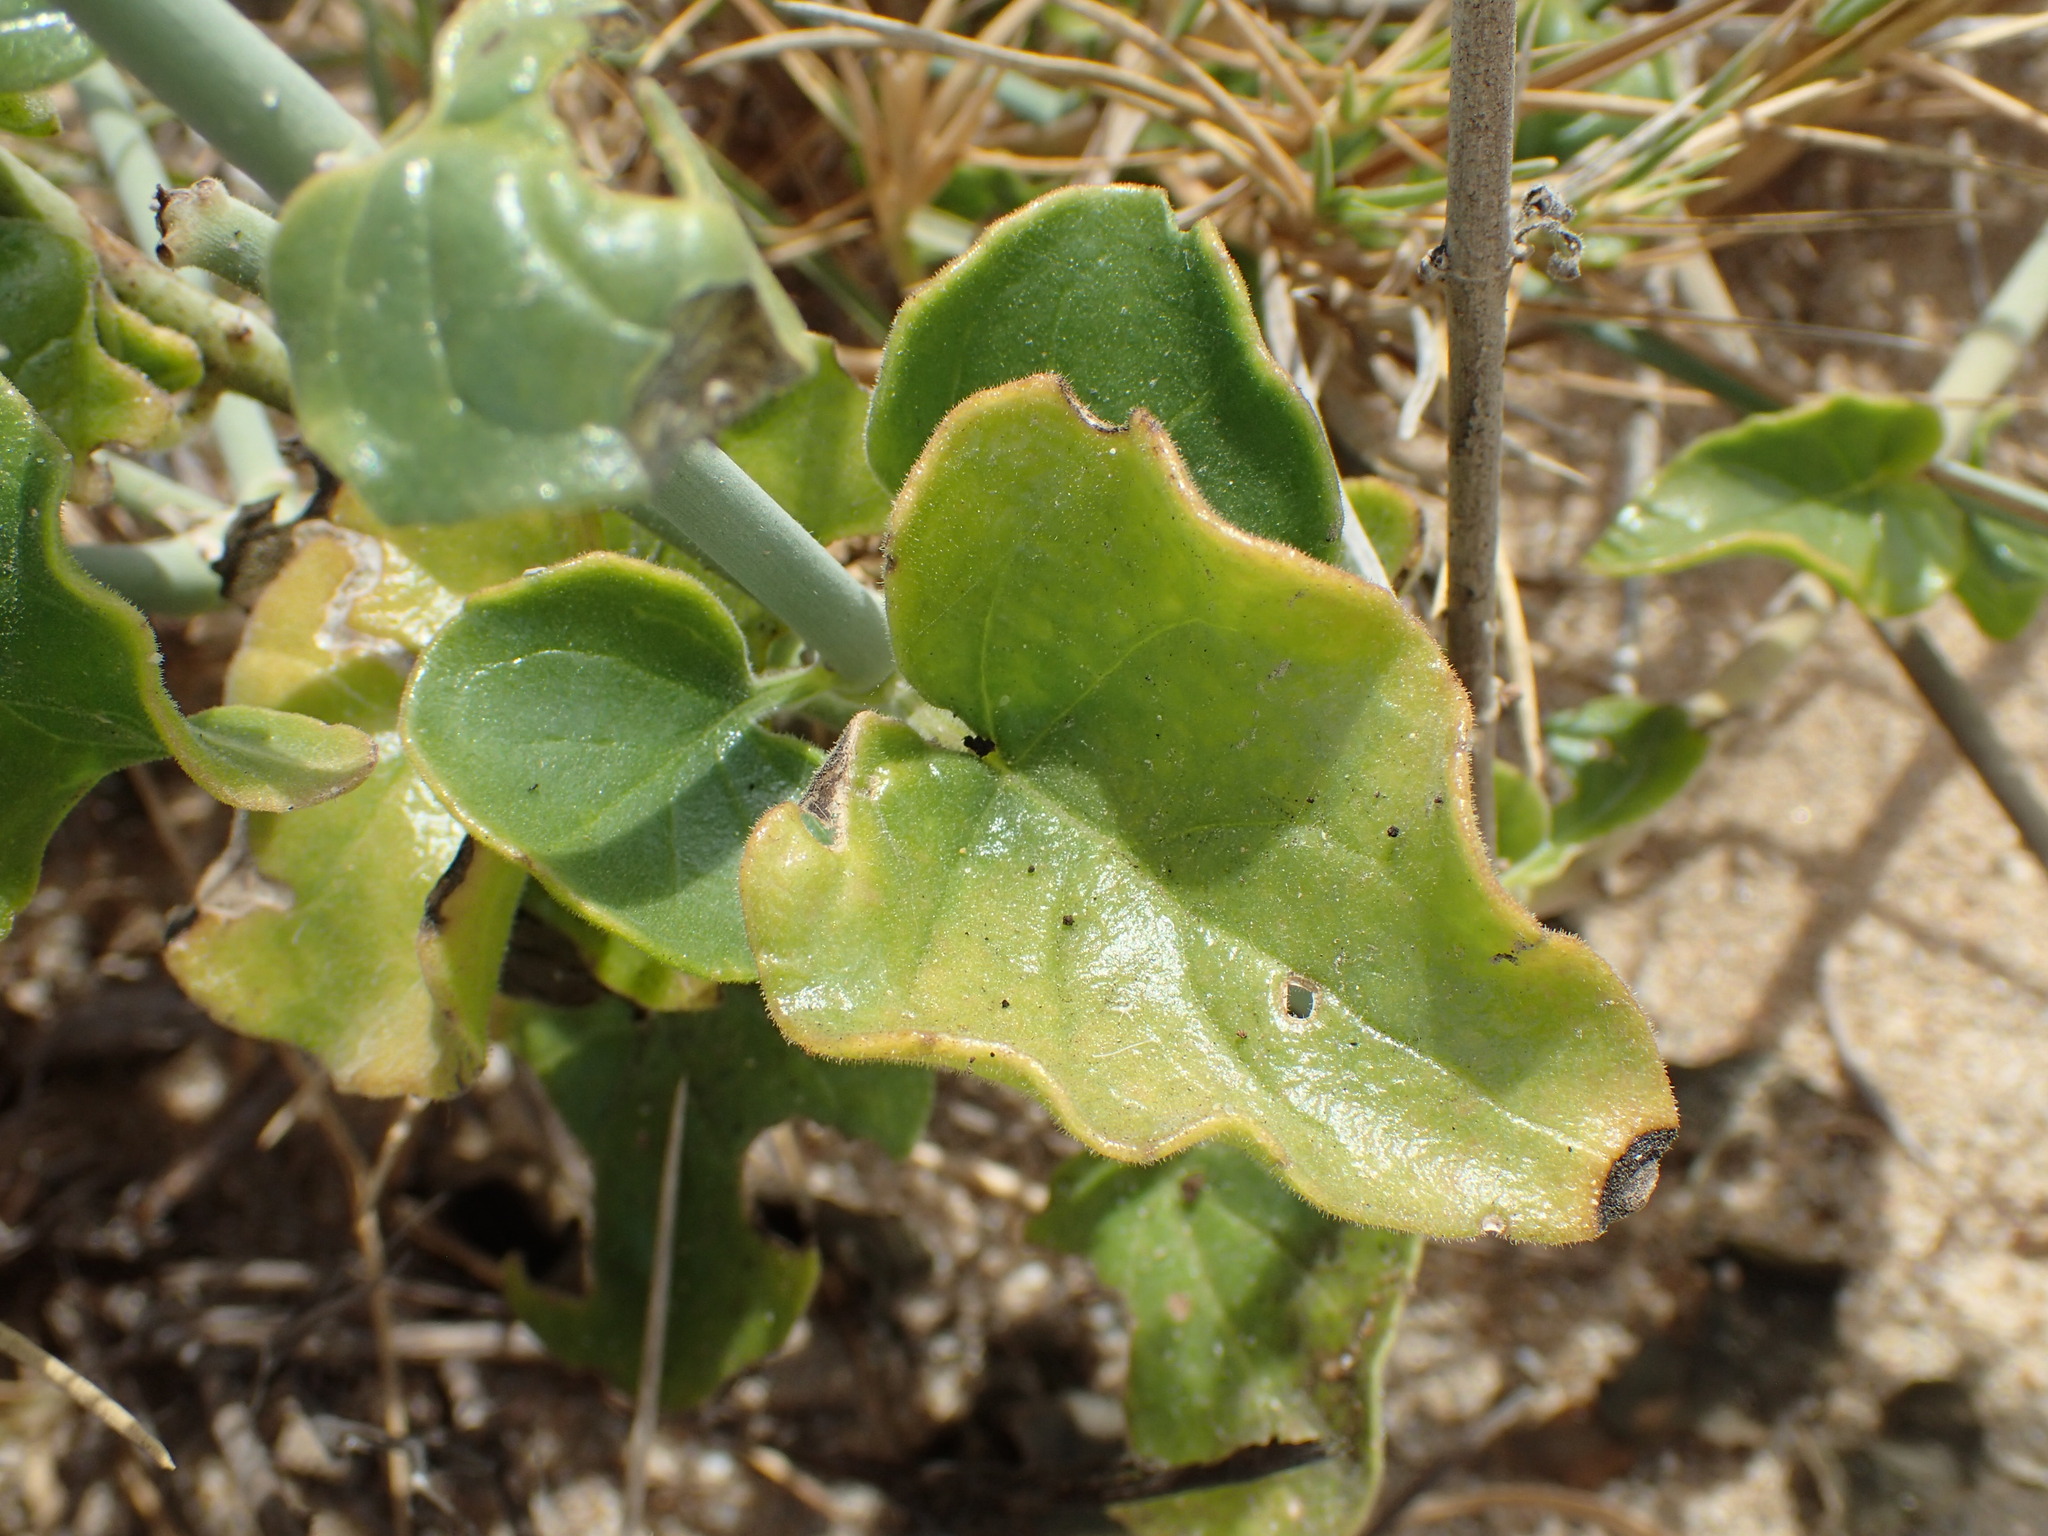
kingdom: Plantae
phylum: Tracheophyta
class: Magnoliopsida
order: Lamiales
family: Acanthaceae
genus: Justicia
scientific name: Justicia californica
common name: Chuparosa-honeysuckle
